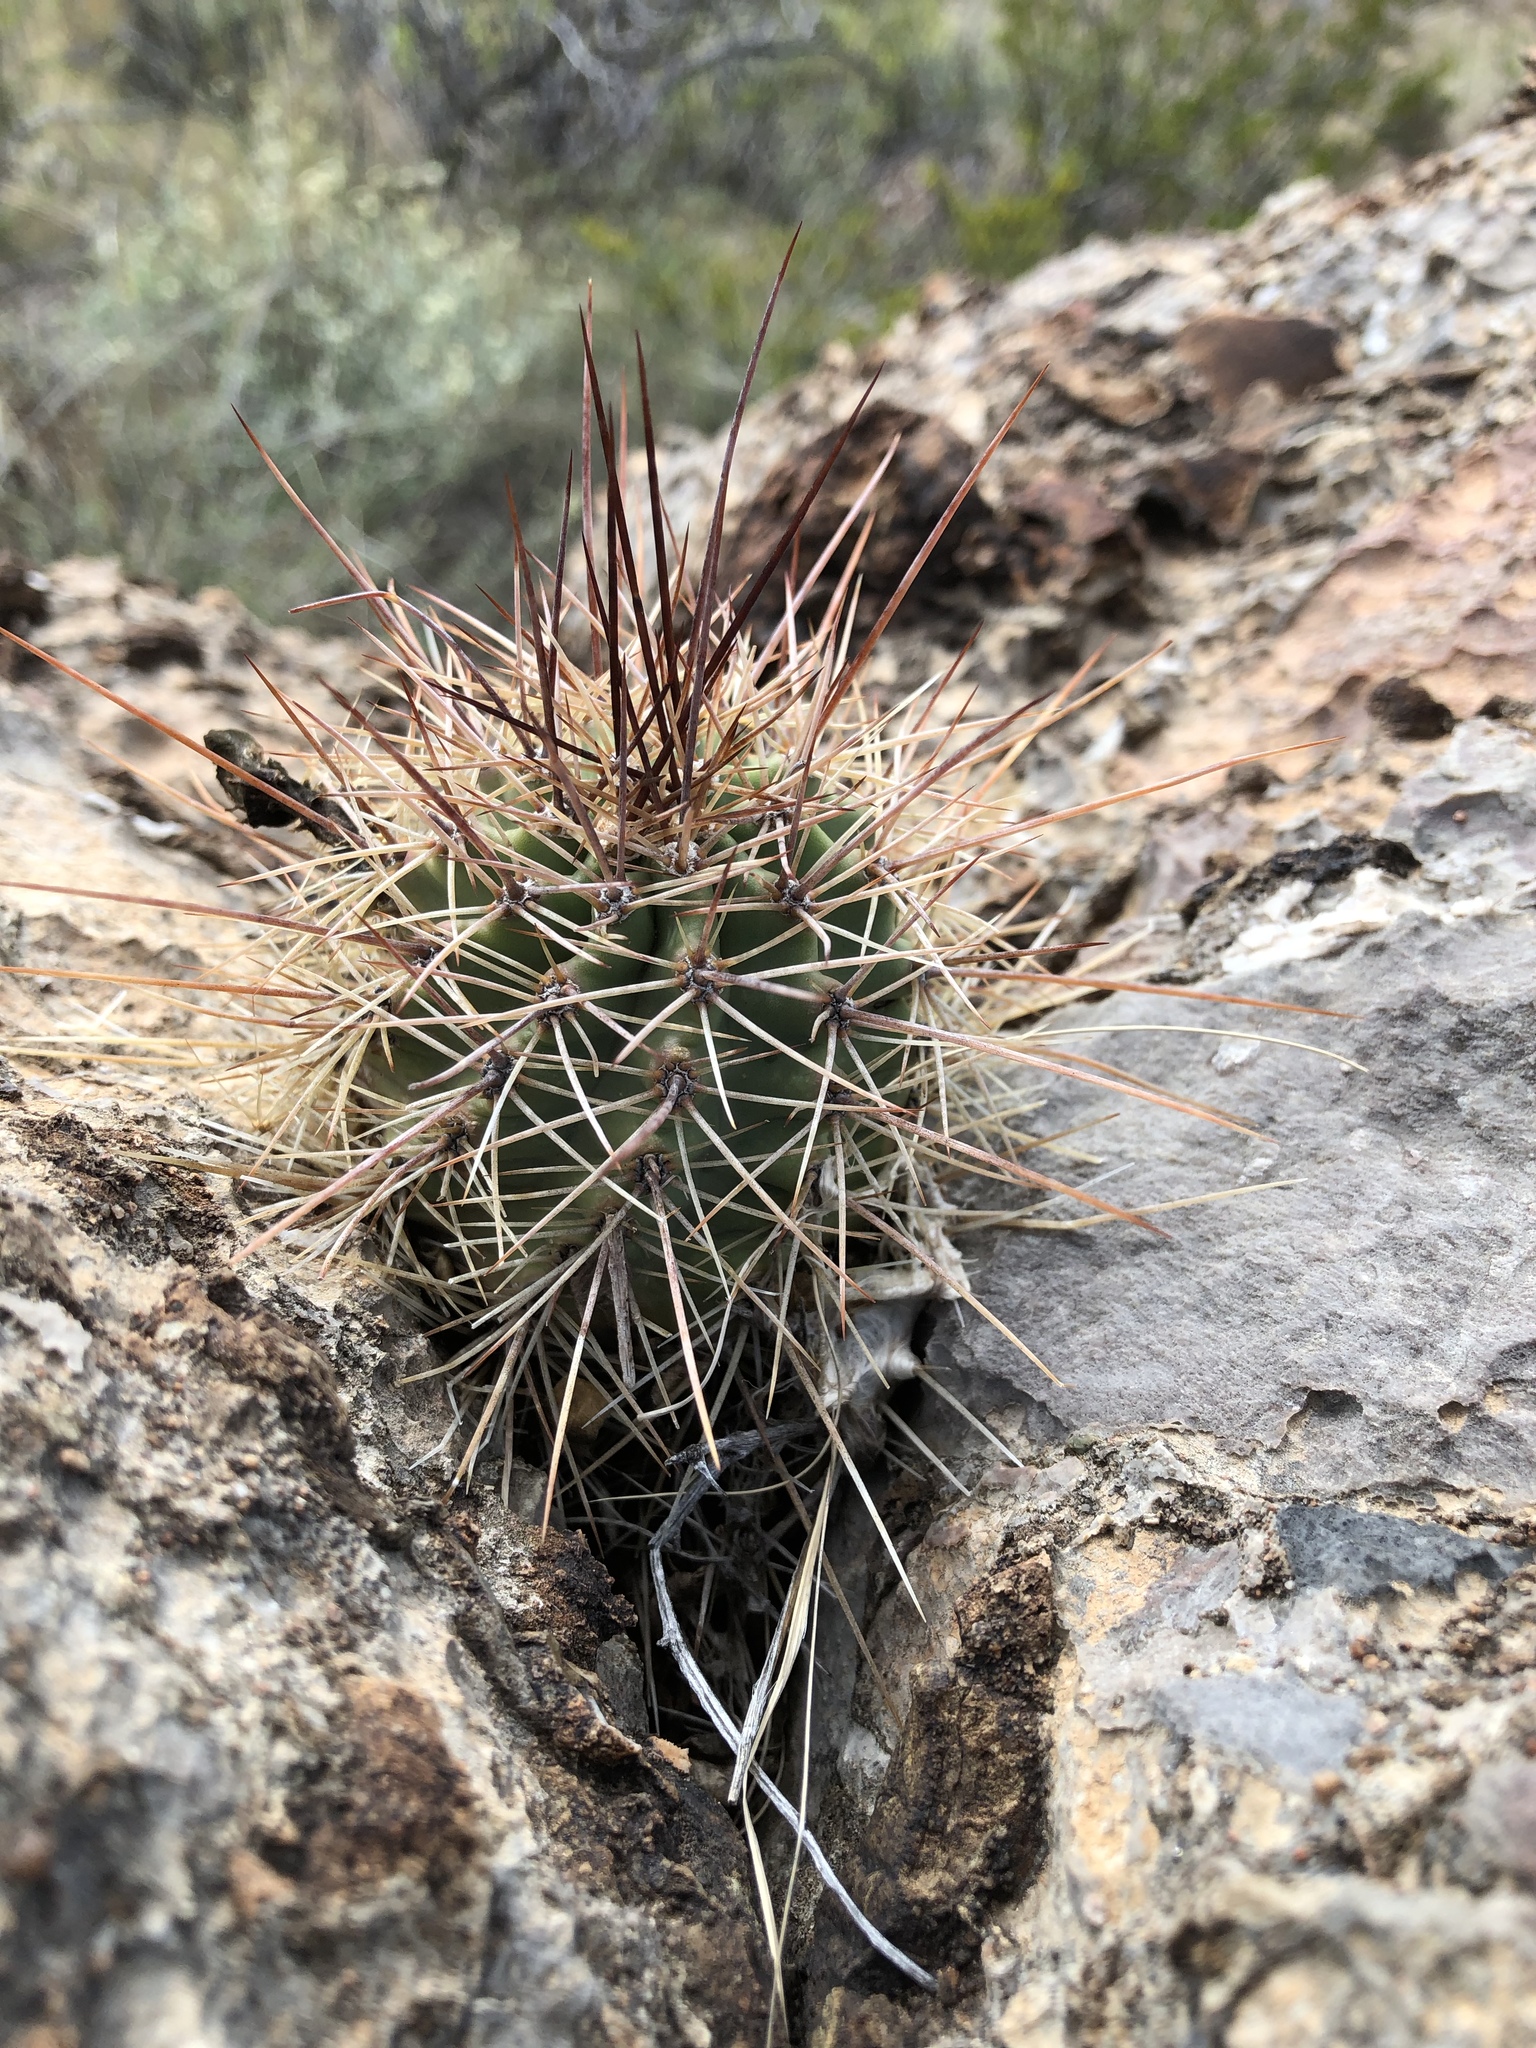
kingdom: Plantae
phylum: Tracheophyta
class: Magnoliopsida
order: Caryophyllales
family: Cactaceae
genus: Echinocereus
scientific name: Echinocereus coccineus
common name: Scarlet hedgehog cactus
